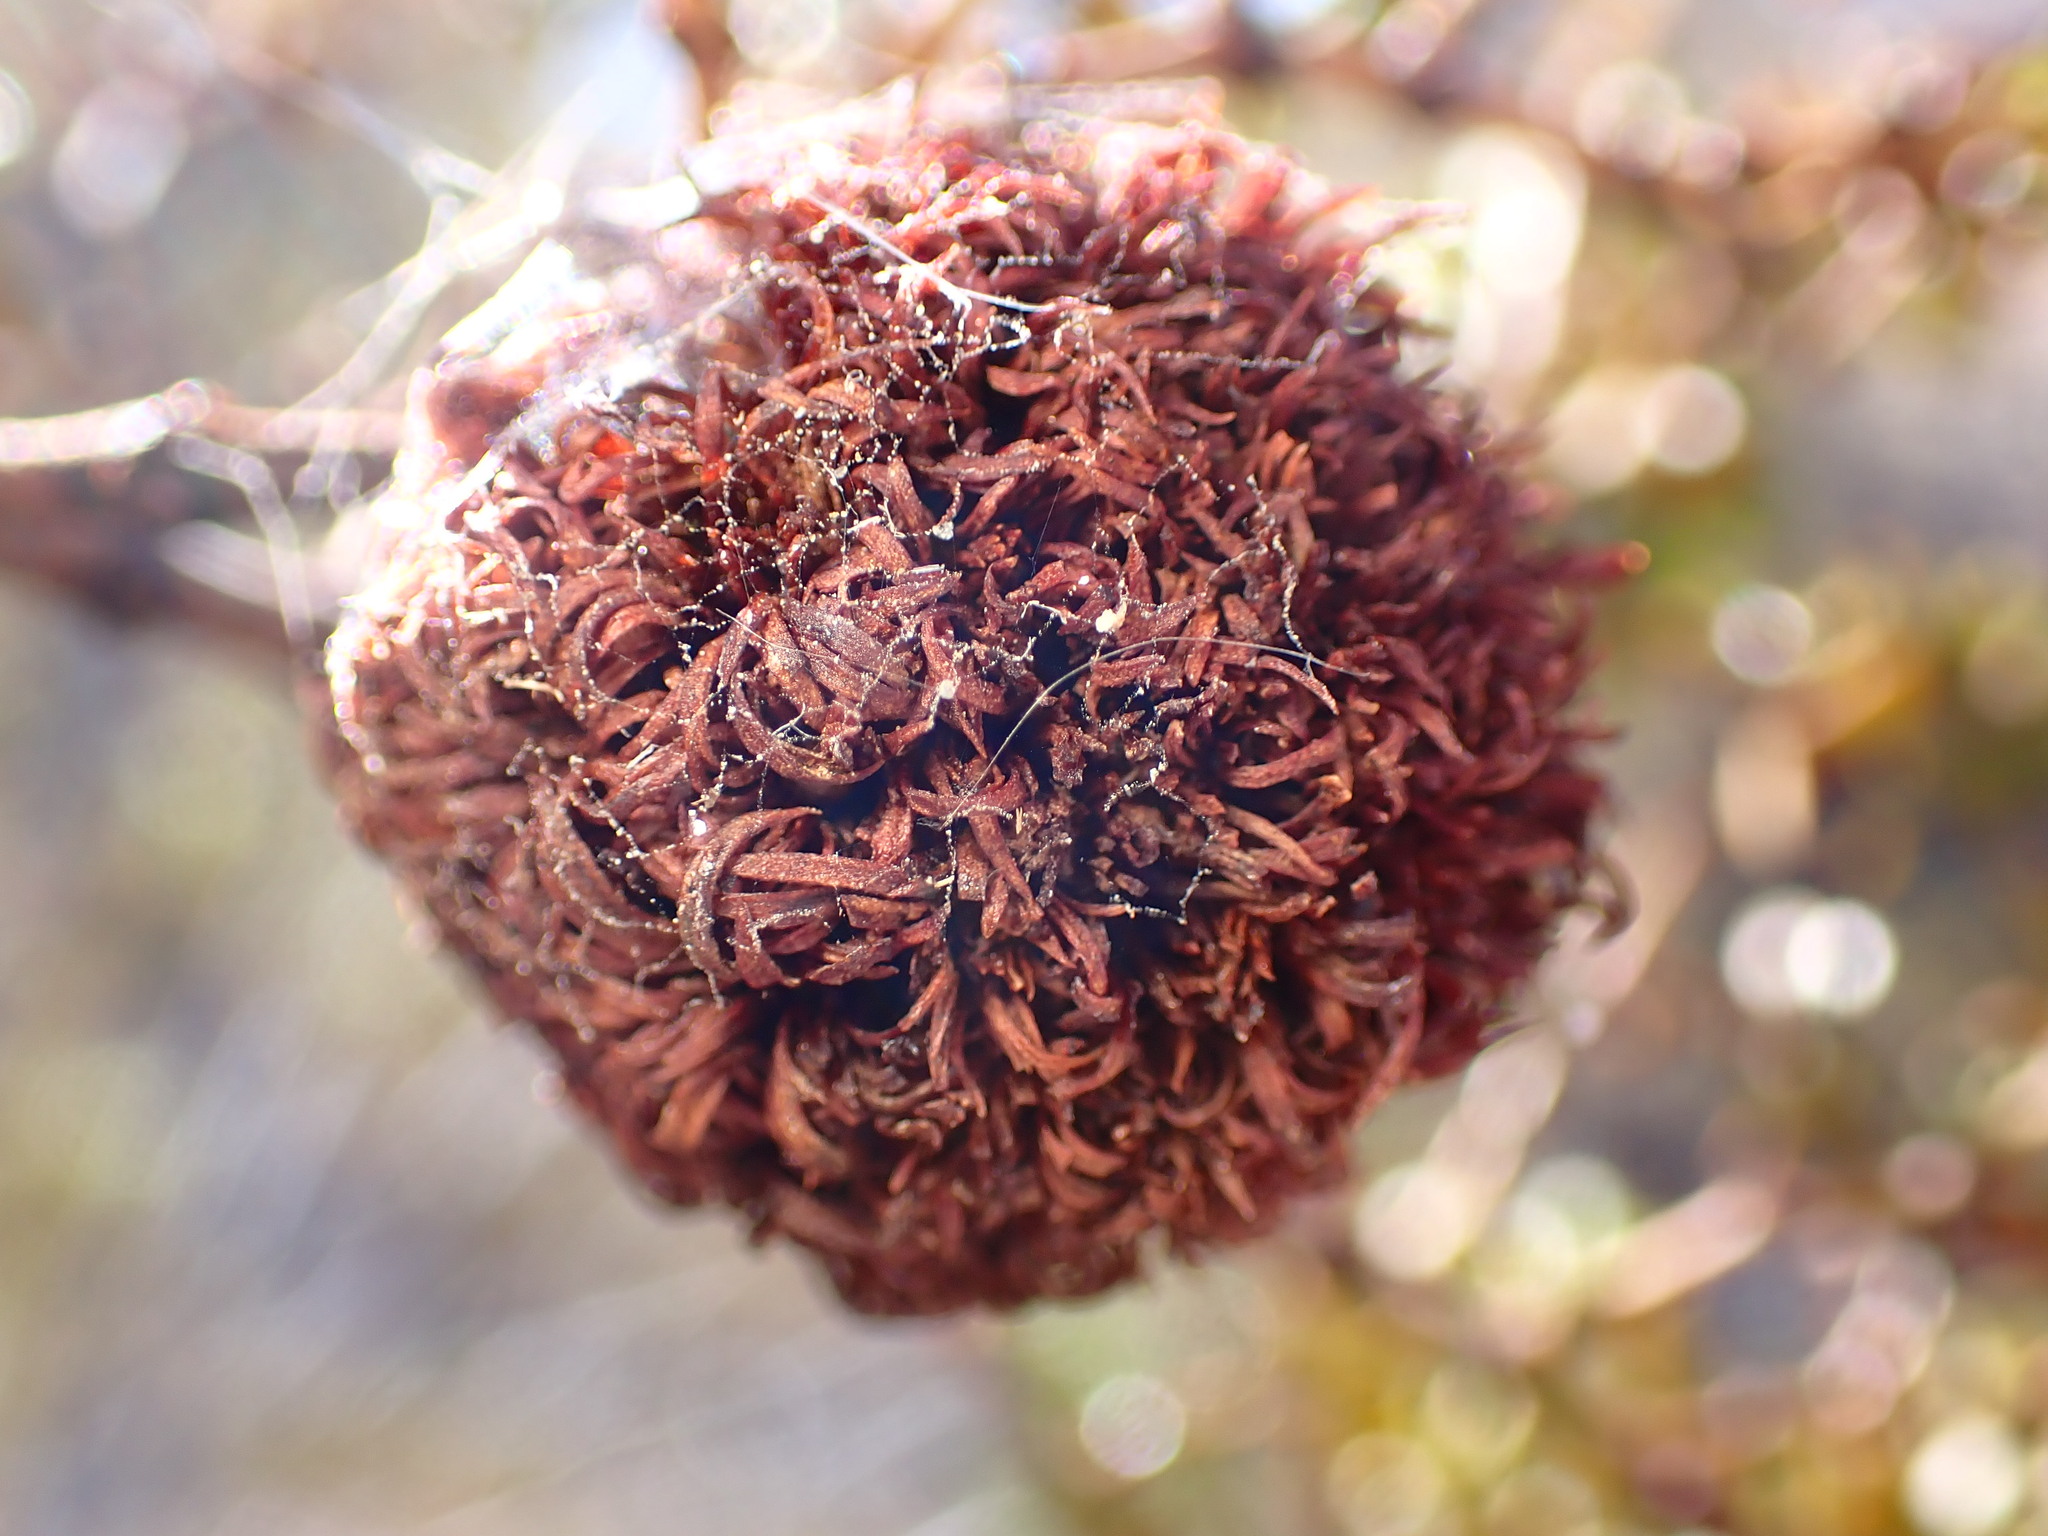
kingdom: Animalia
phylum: Arthropoda
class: Insecta
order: Diptera
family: Cecidomyiidae
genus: Asphondylia
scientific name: Asphondylia auripila
